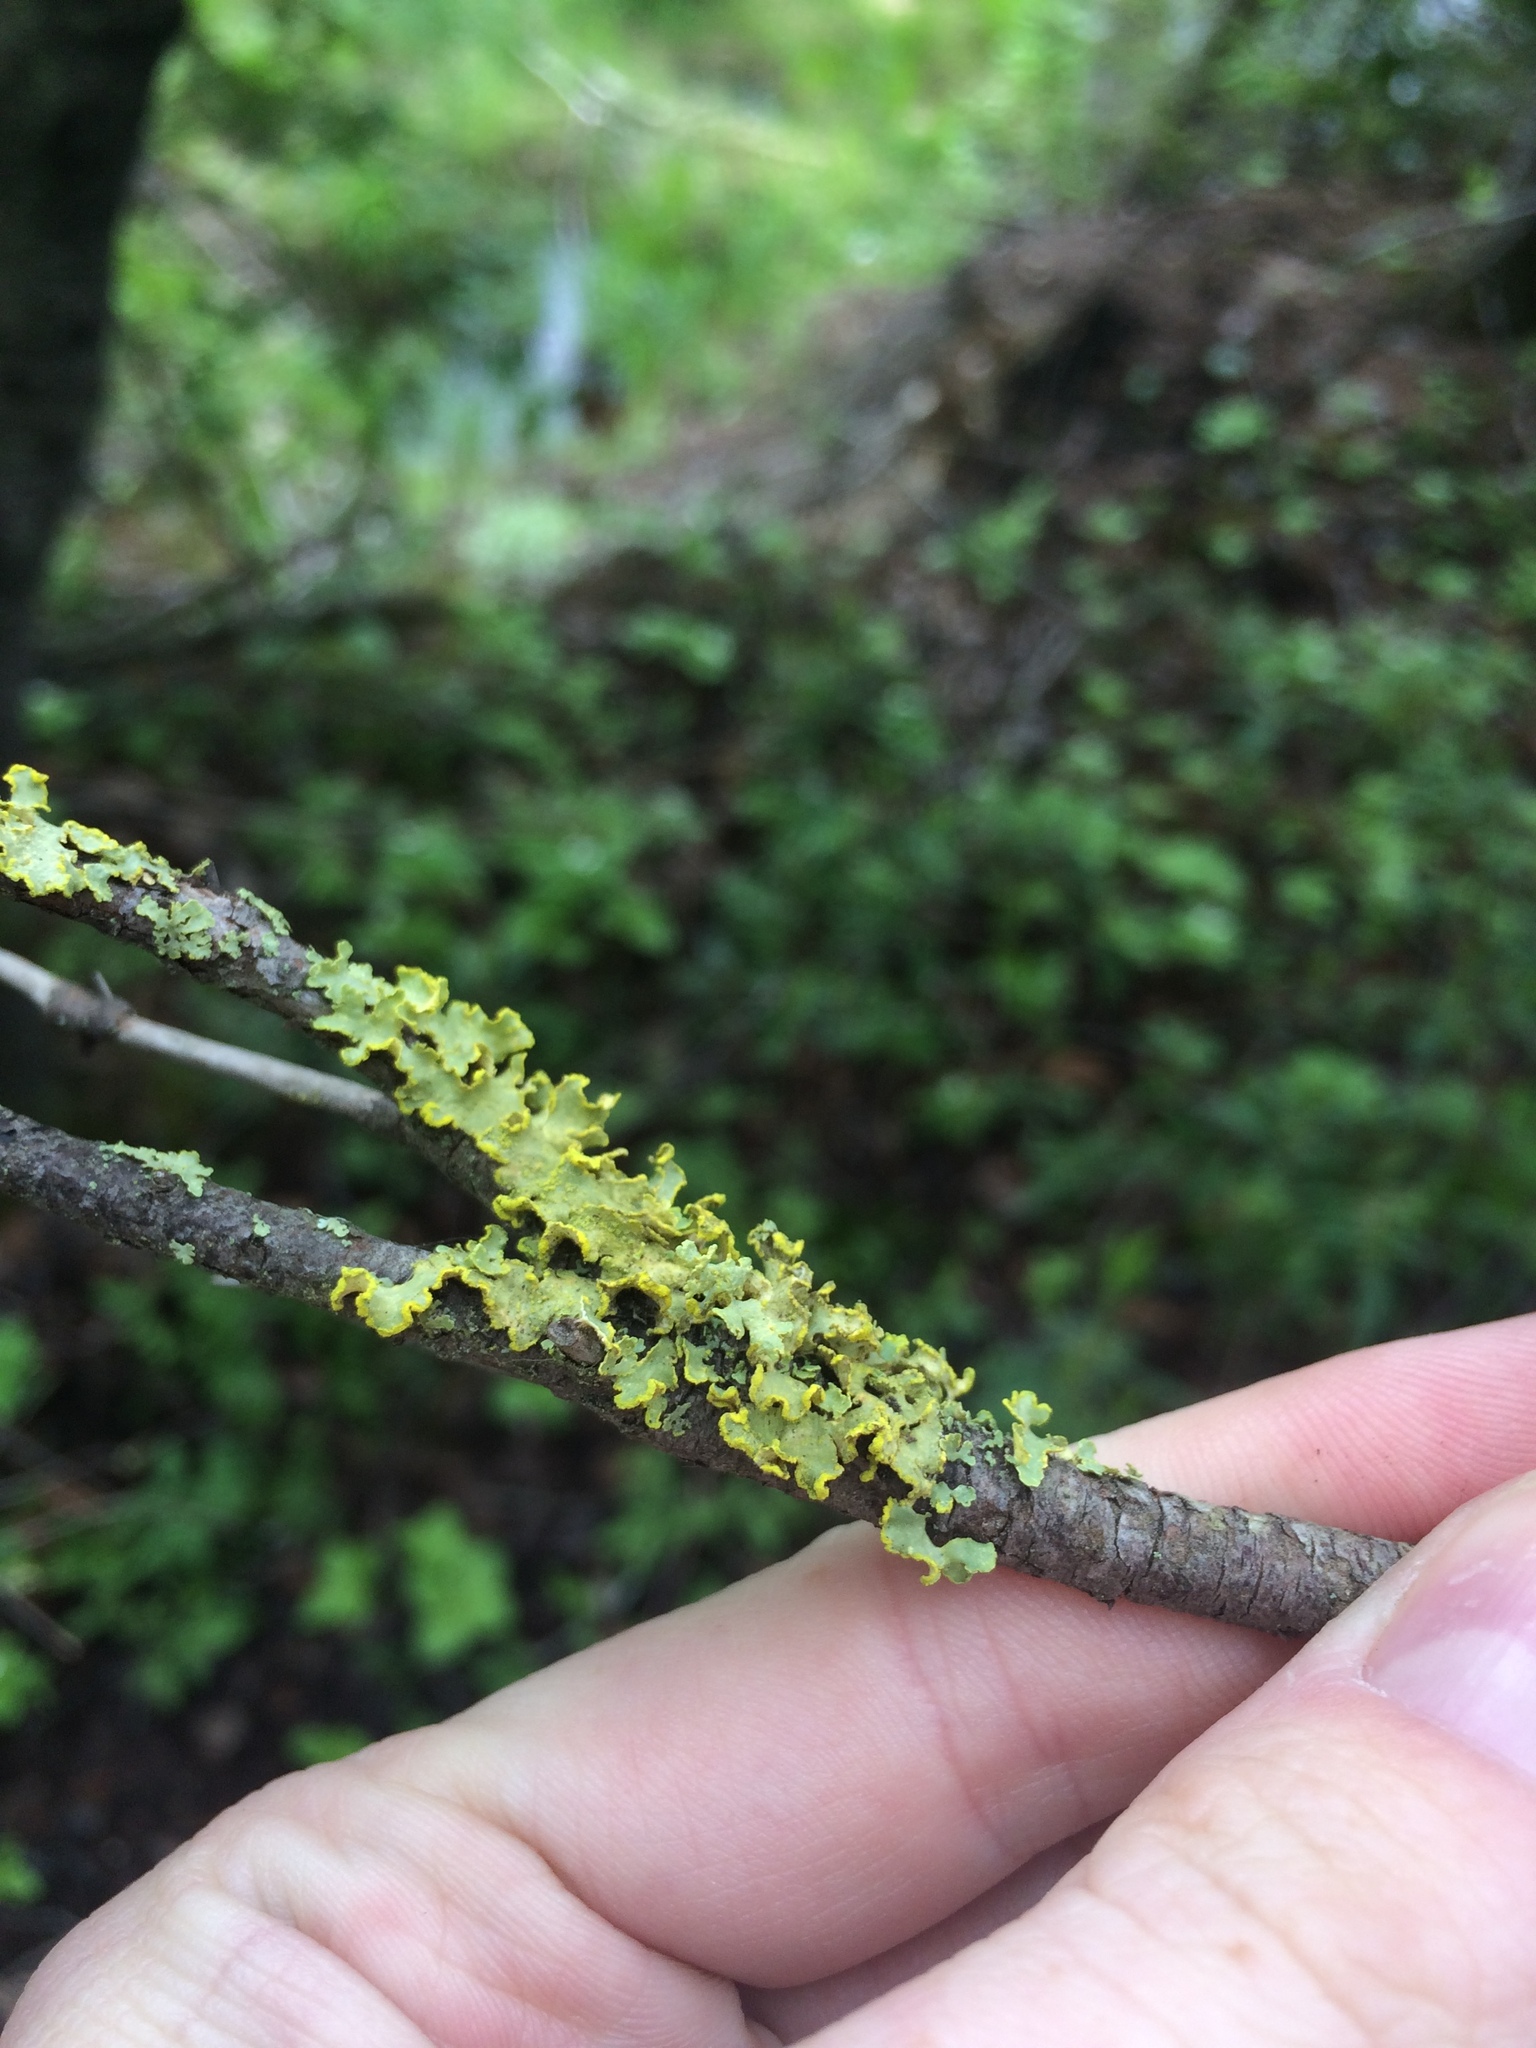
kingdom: Fungi
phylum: Ascomycota
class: Lecanoromycetes
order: Lecanorales
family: Parmeliaceae
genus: Vulpicida
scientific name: Vulpicida pinastri
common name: Powdered sunshine lichen
